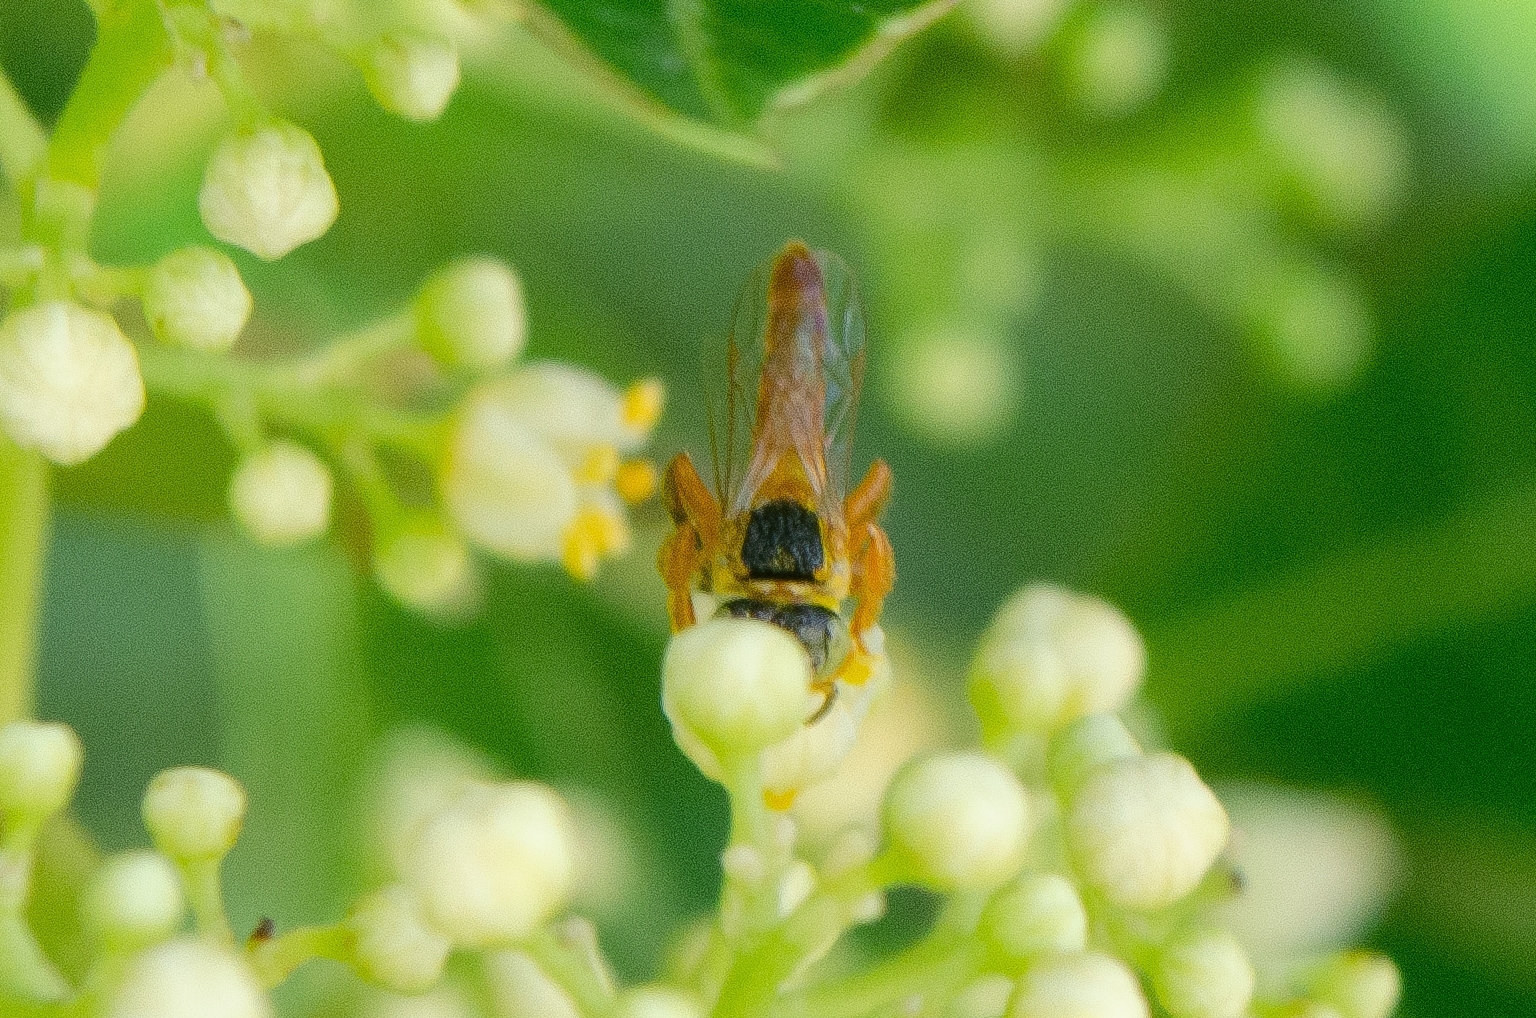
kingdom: Animalia
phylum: Arthropoda
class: Insecta
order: Hymenoptera
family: Apidae
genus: Tetragonisca
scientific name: Tetragonisca fiebrigi
